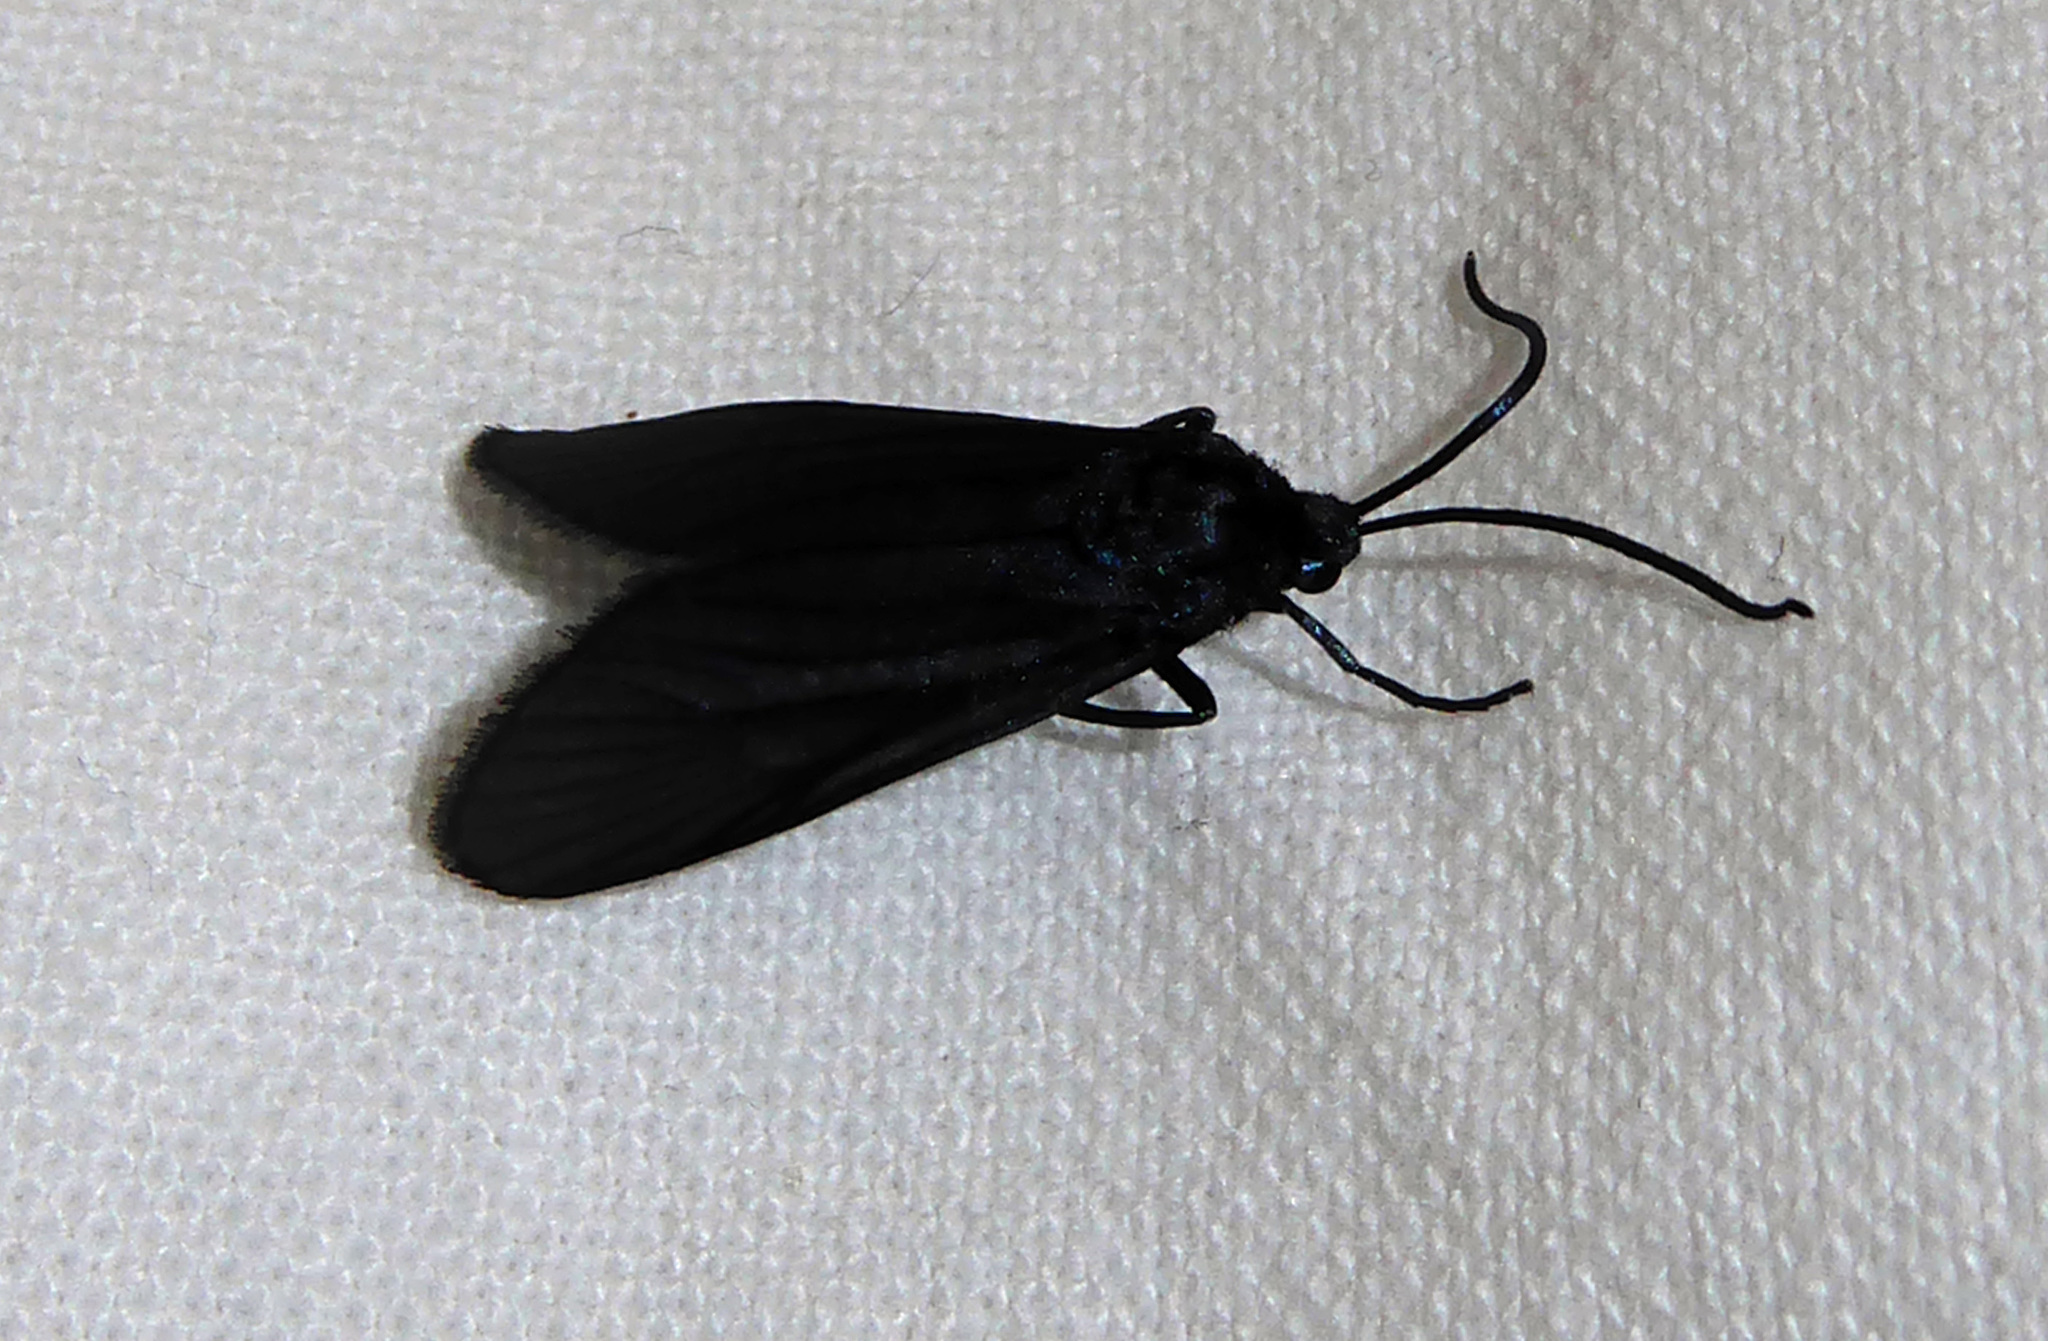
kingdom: Animalia
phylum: Arthropoda
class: Insecta
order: Lepidoptera
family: Zygaenidae
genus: Artona
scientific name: Artona martini
